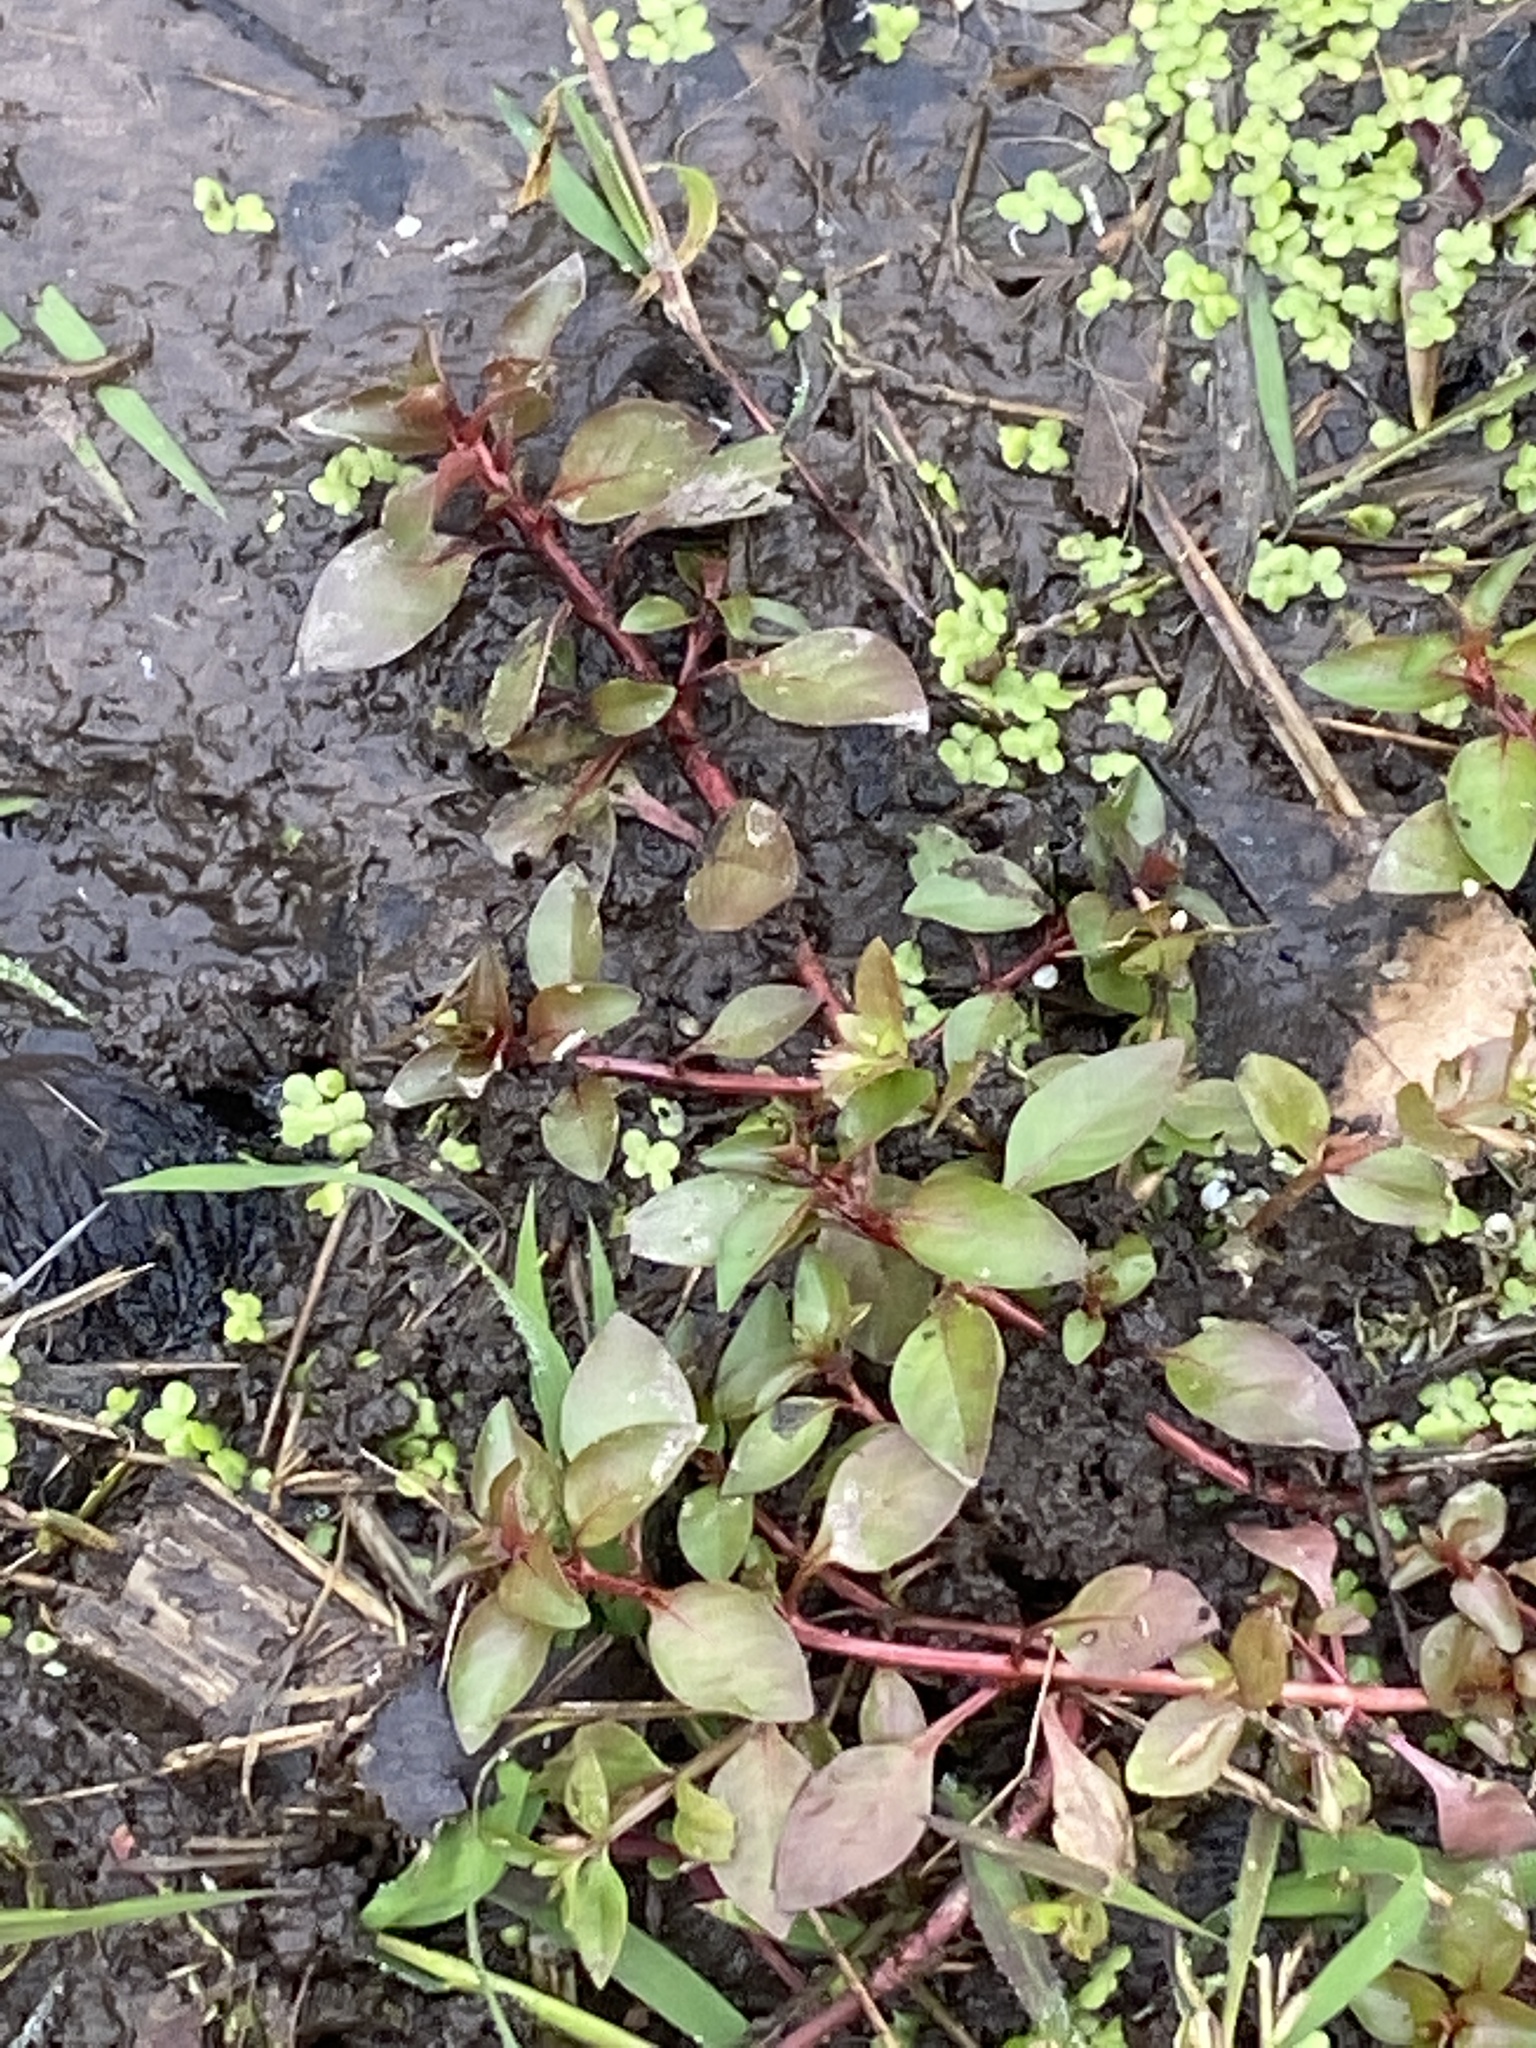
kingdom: Plantae
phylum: Tracheophyta
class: Magnoliopsida
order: Myrtales
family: Onagraceae
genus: Ludwigia
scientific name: Ludwigia palustris
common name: Hampshire-purslane
